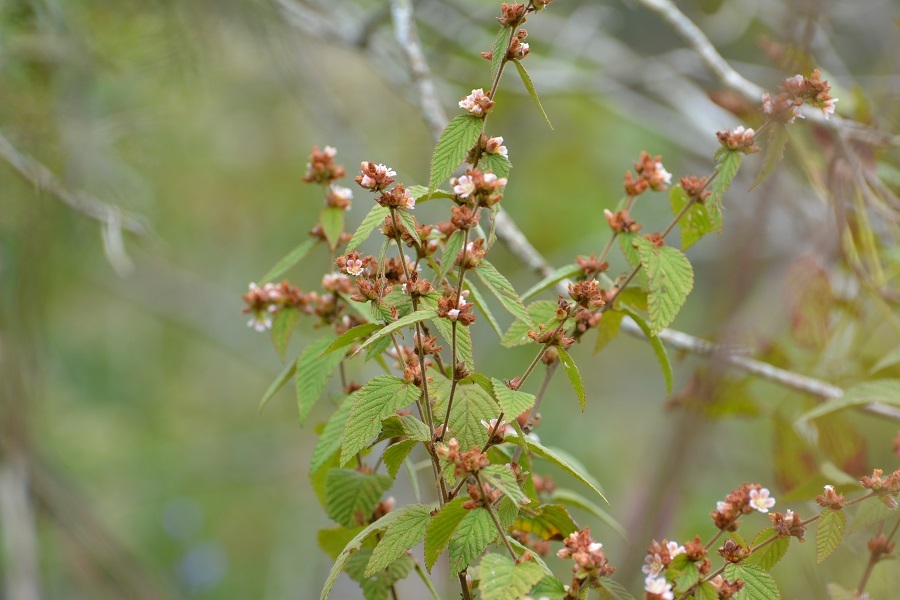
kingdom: Plantae
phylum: Tracheophyta
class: Magnoliopsida
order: Malvales
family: Malvaceae
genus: Melochia
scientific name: Melochia nodiflora
